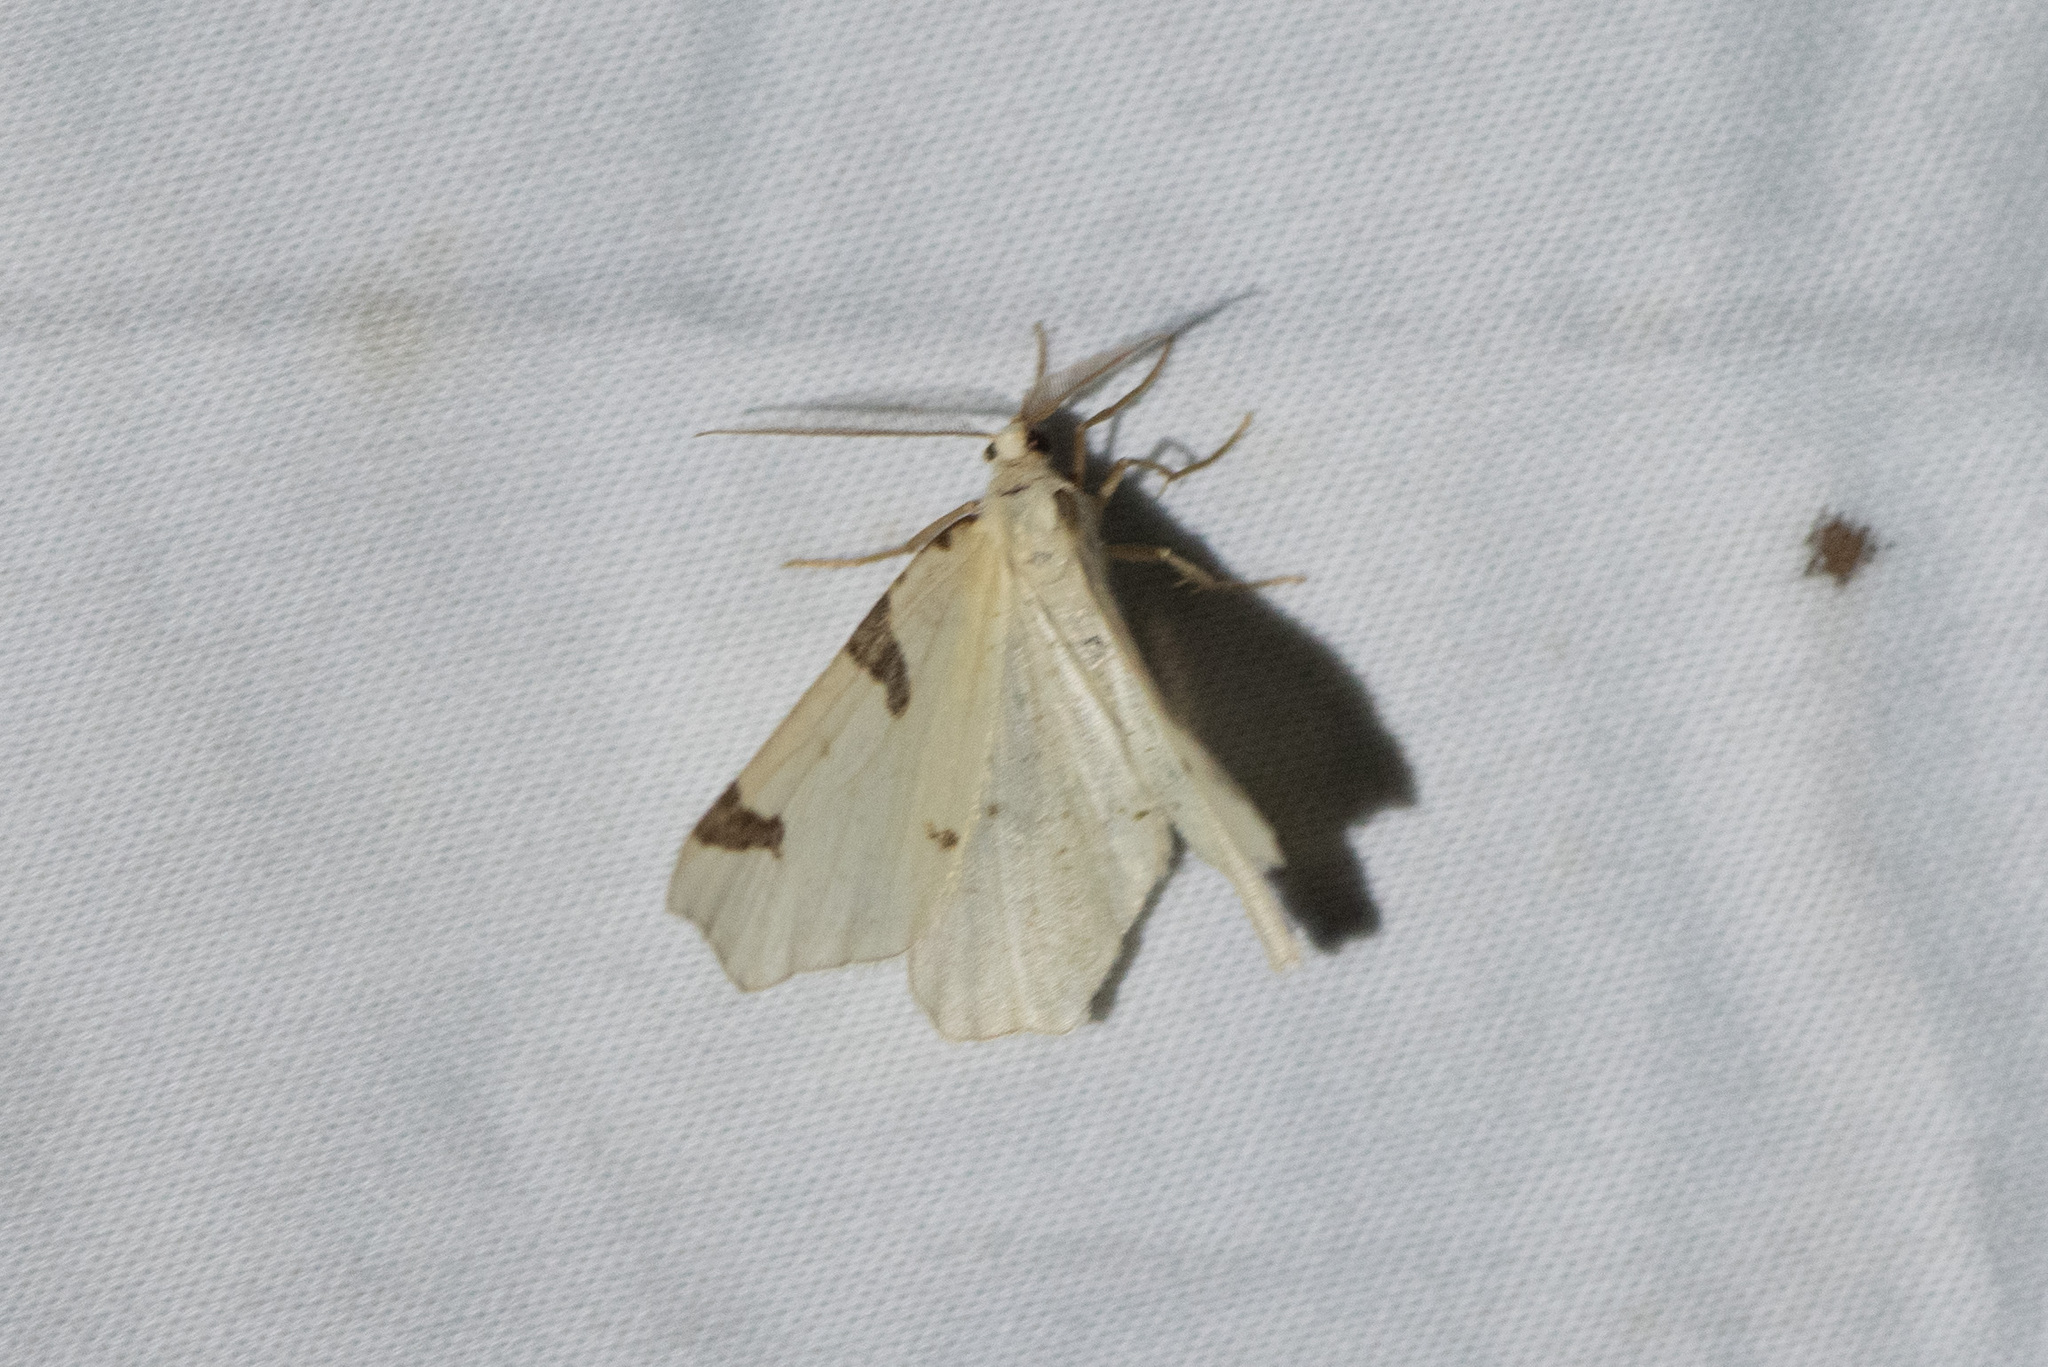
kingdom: Animalia
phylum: Arthropoda
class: Insecta
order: Lepidoptera
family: Geometridae
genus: Neoterpes
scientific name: Neoterpes trianguliferata
